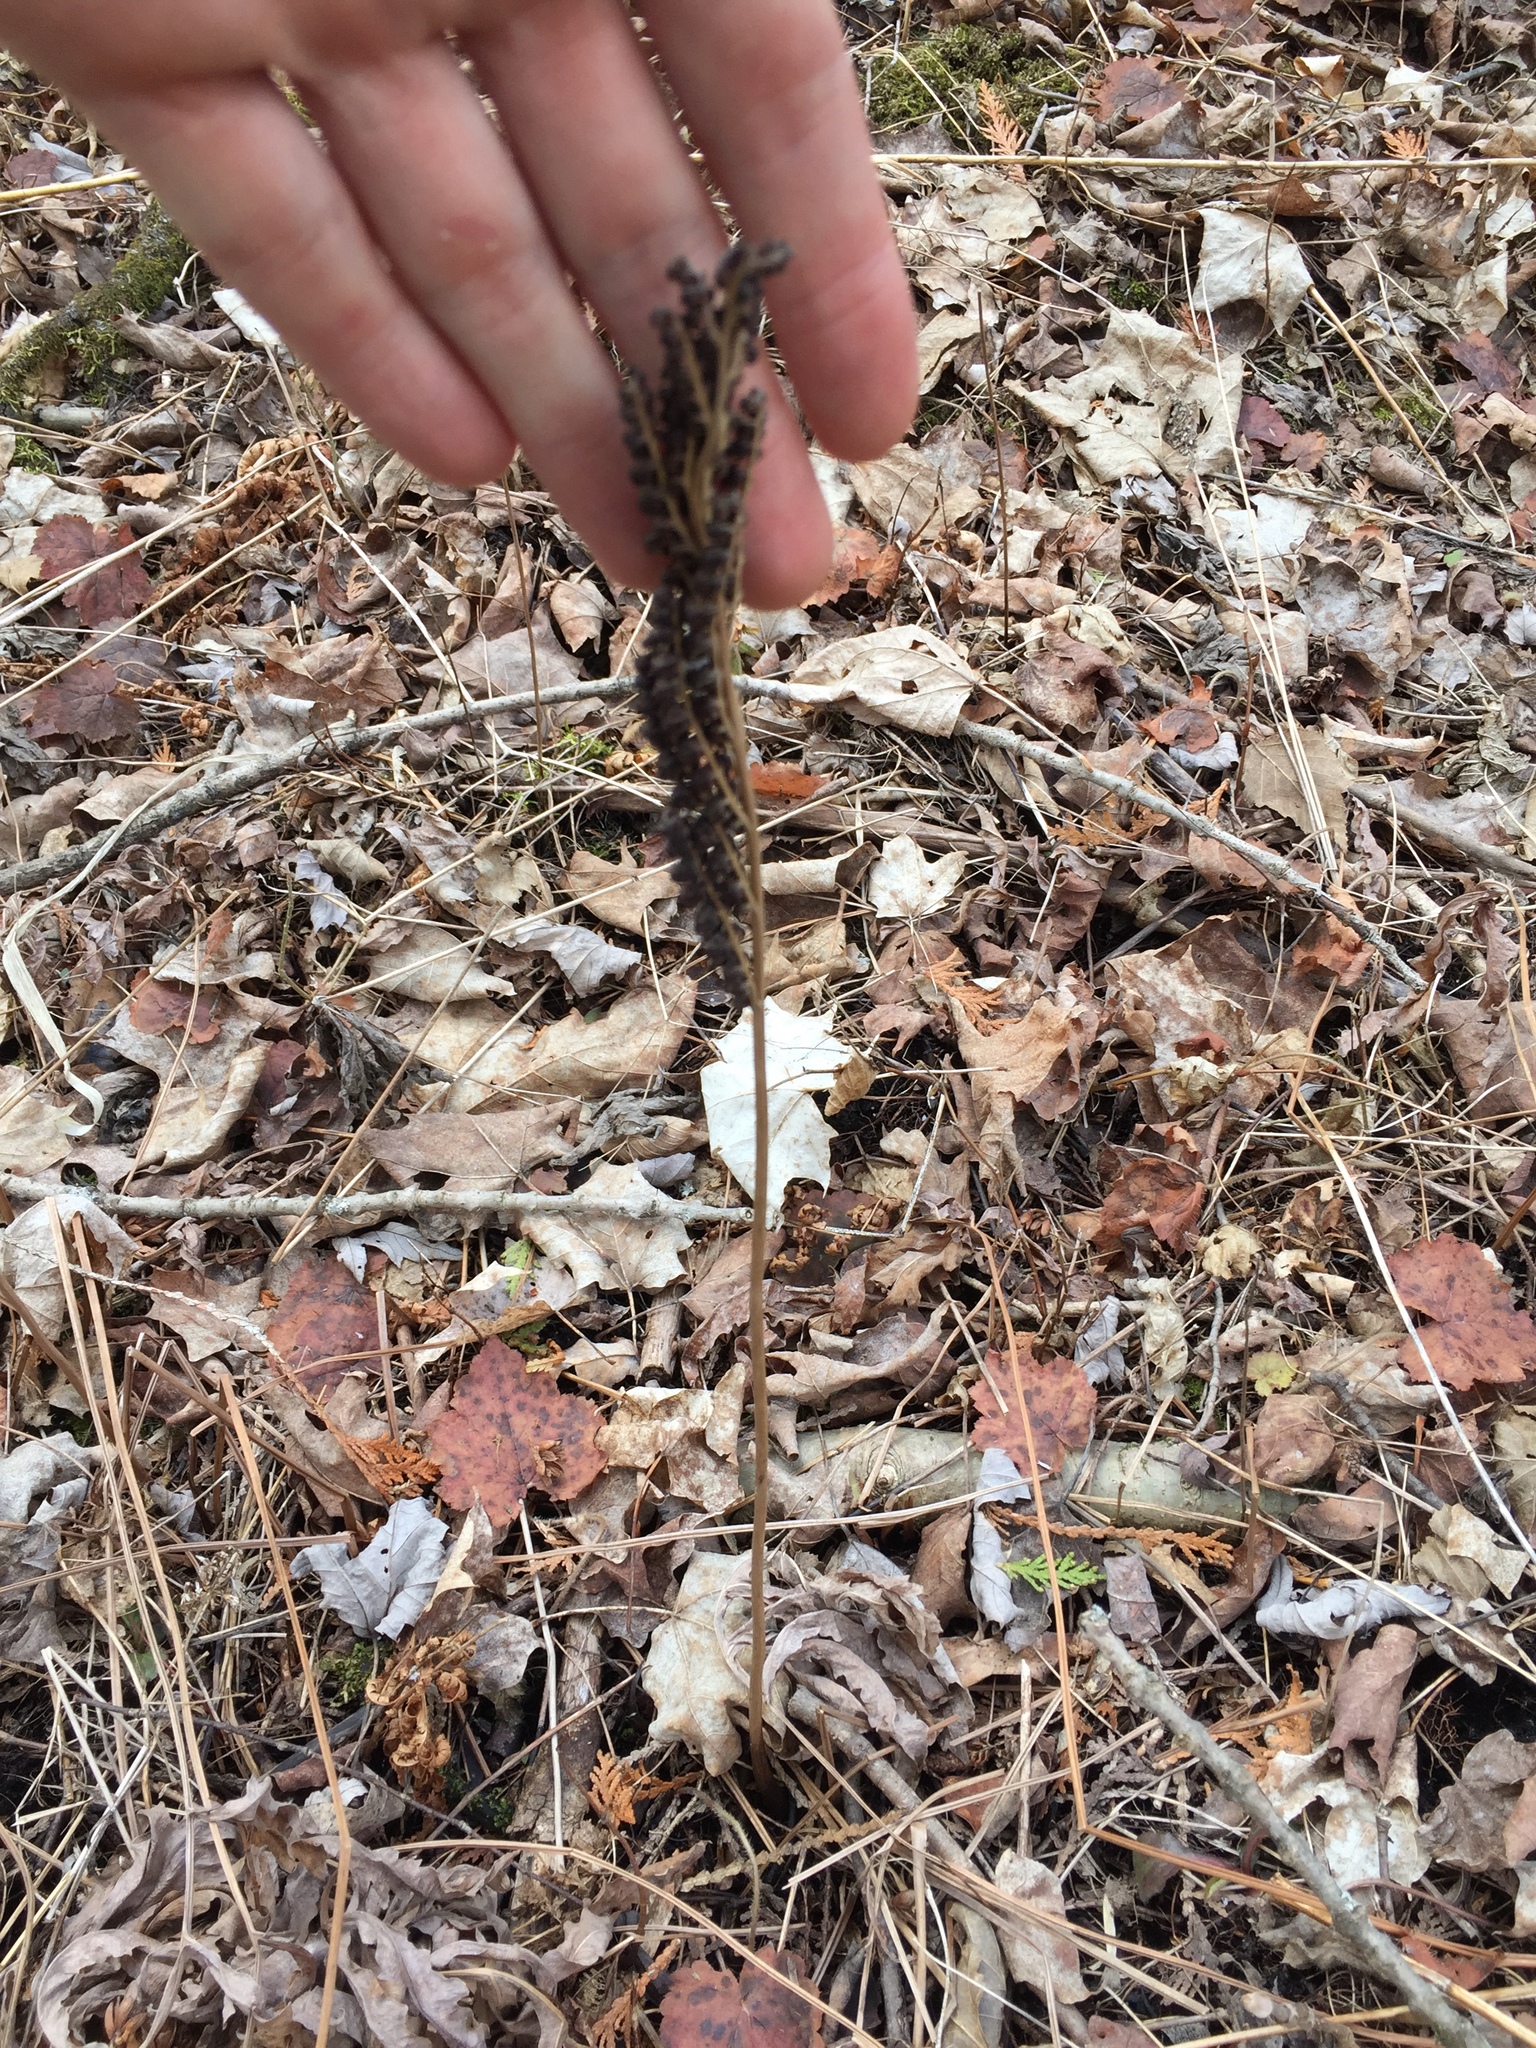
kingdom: Plantae
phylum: Tracheophyta
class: Polypodiopsida
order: Polypodiales
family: Onocleaceae
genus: Onoclea
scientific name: Onoclea sensibilis
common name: Sensitive fern
